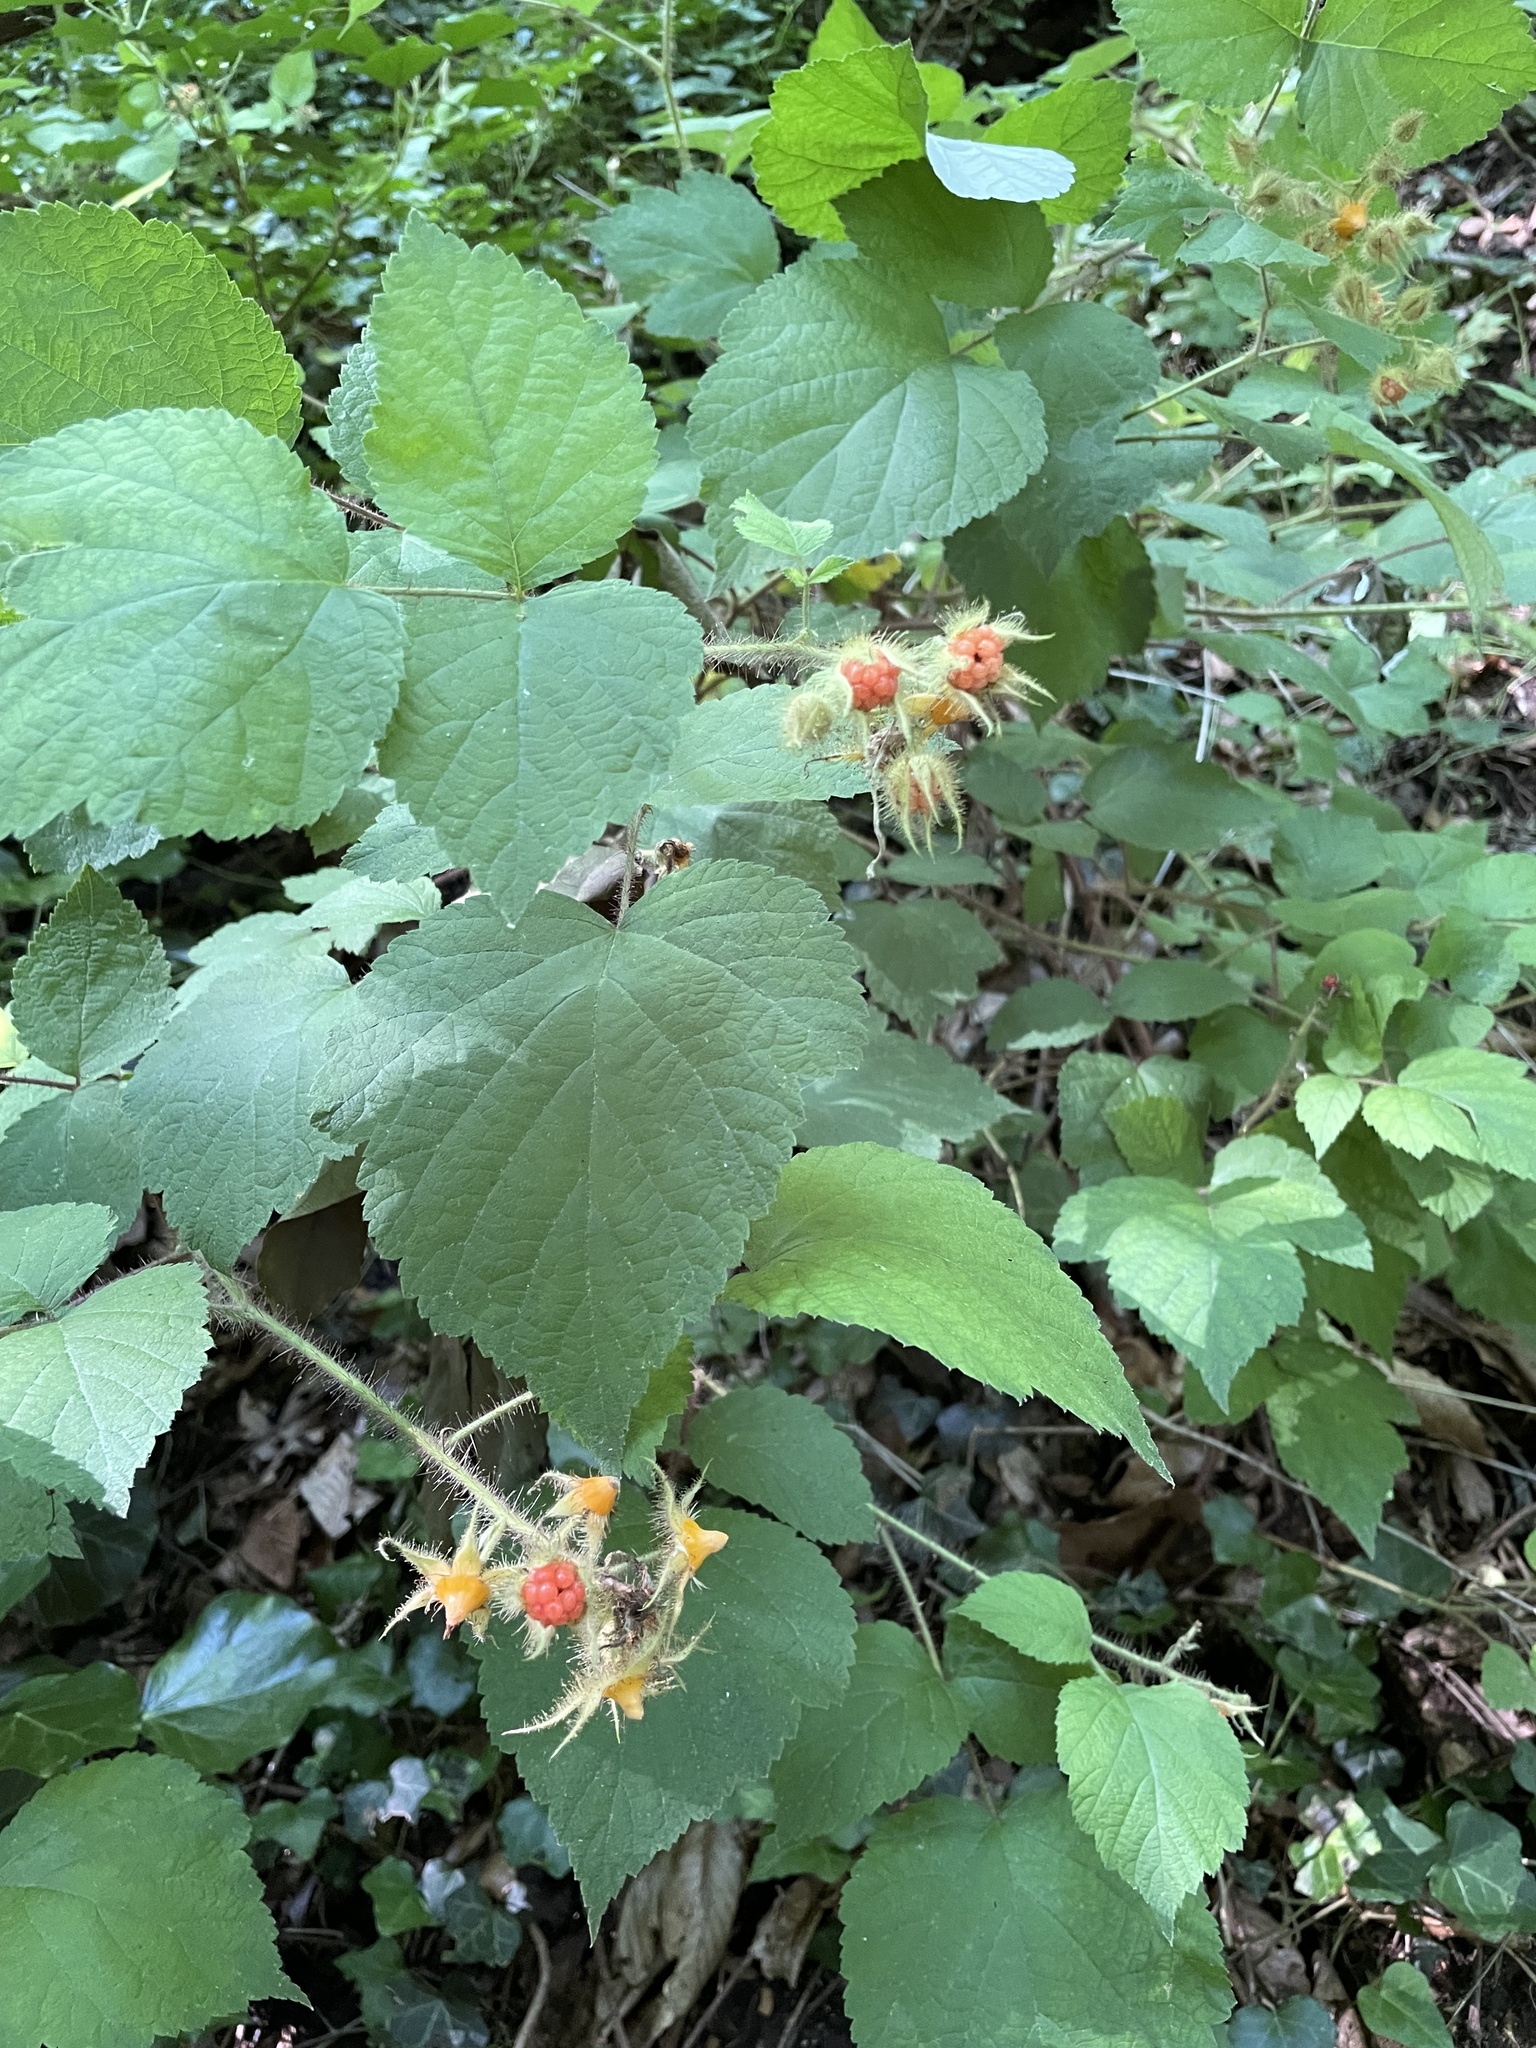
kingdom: Plantae
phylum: Tracheophyta
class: Magnoliopsida
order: Rosales
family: Rosaceae
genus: Rubus
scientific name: Rubus phoenicolasius
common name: Japanese wineberry
